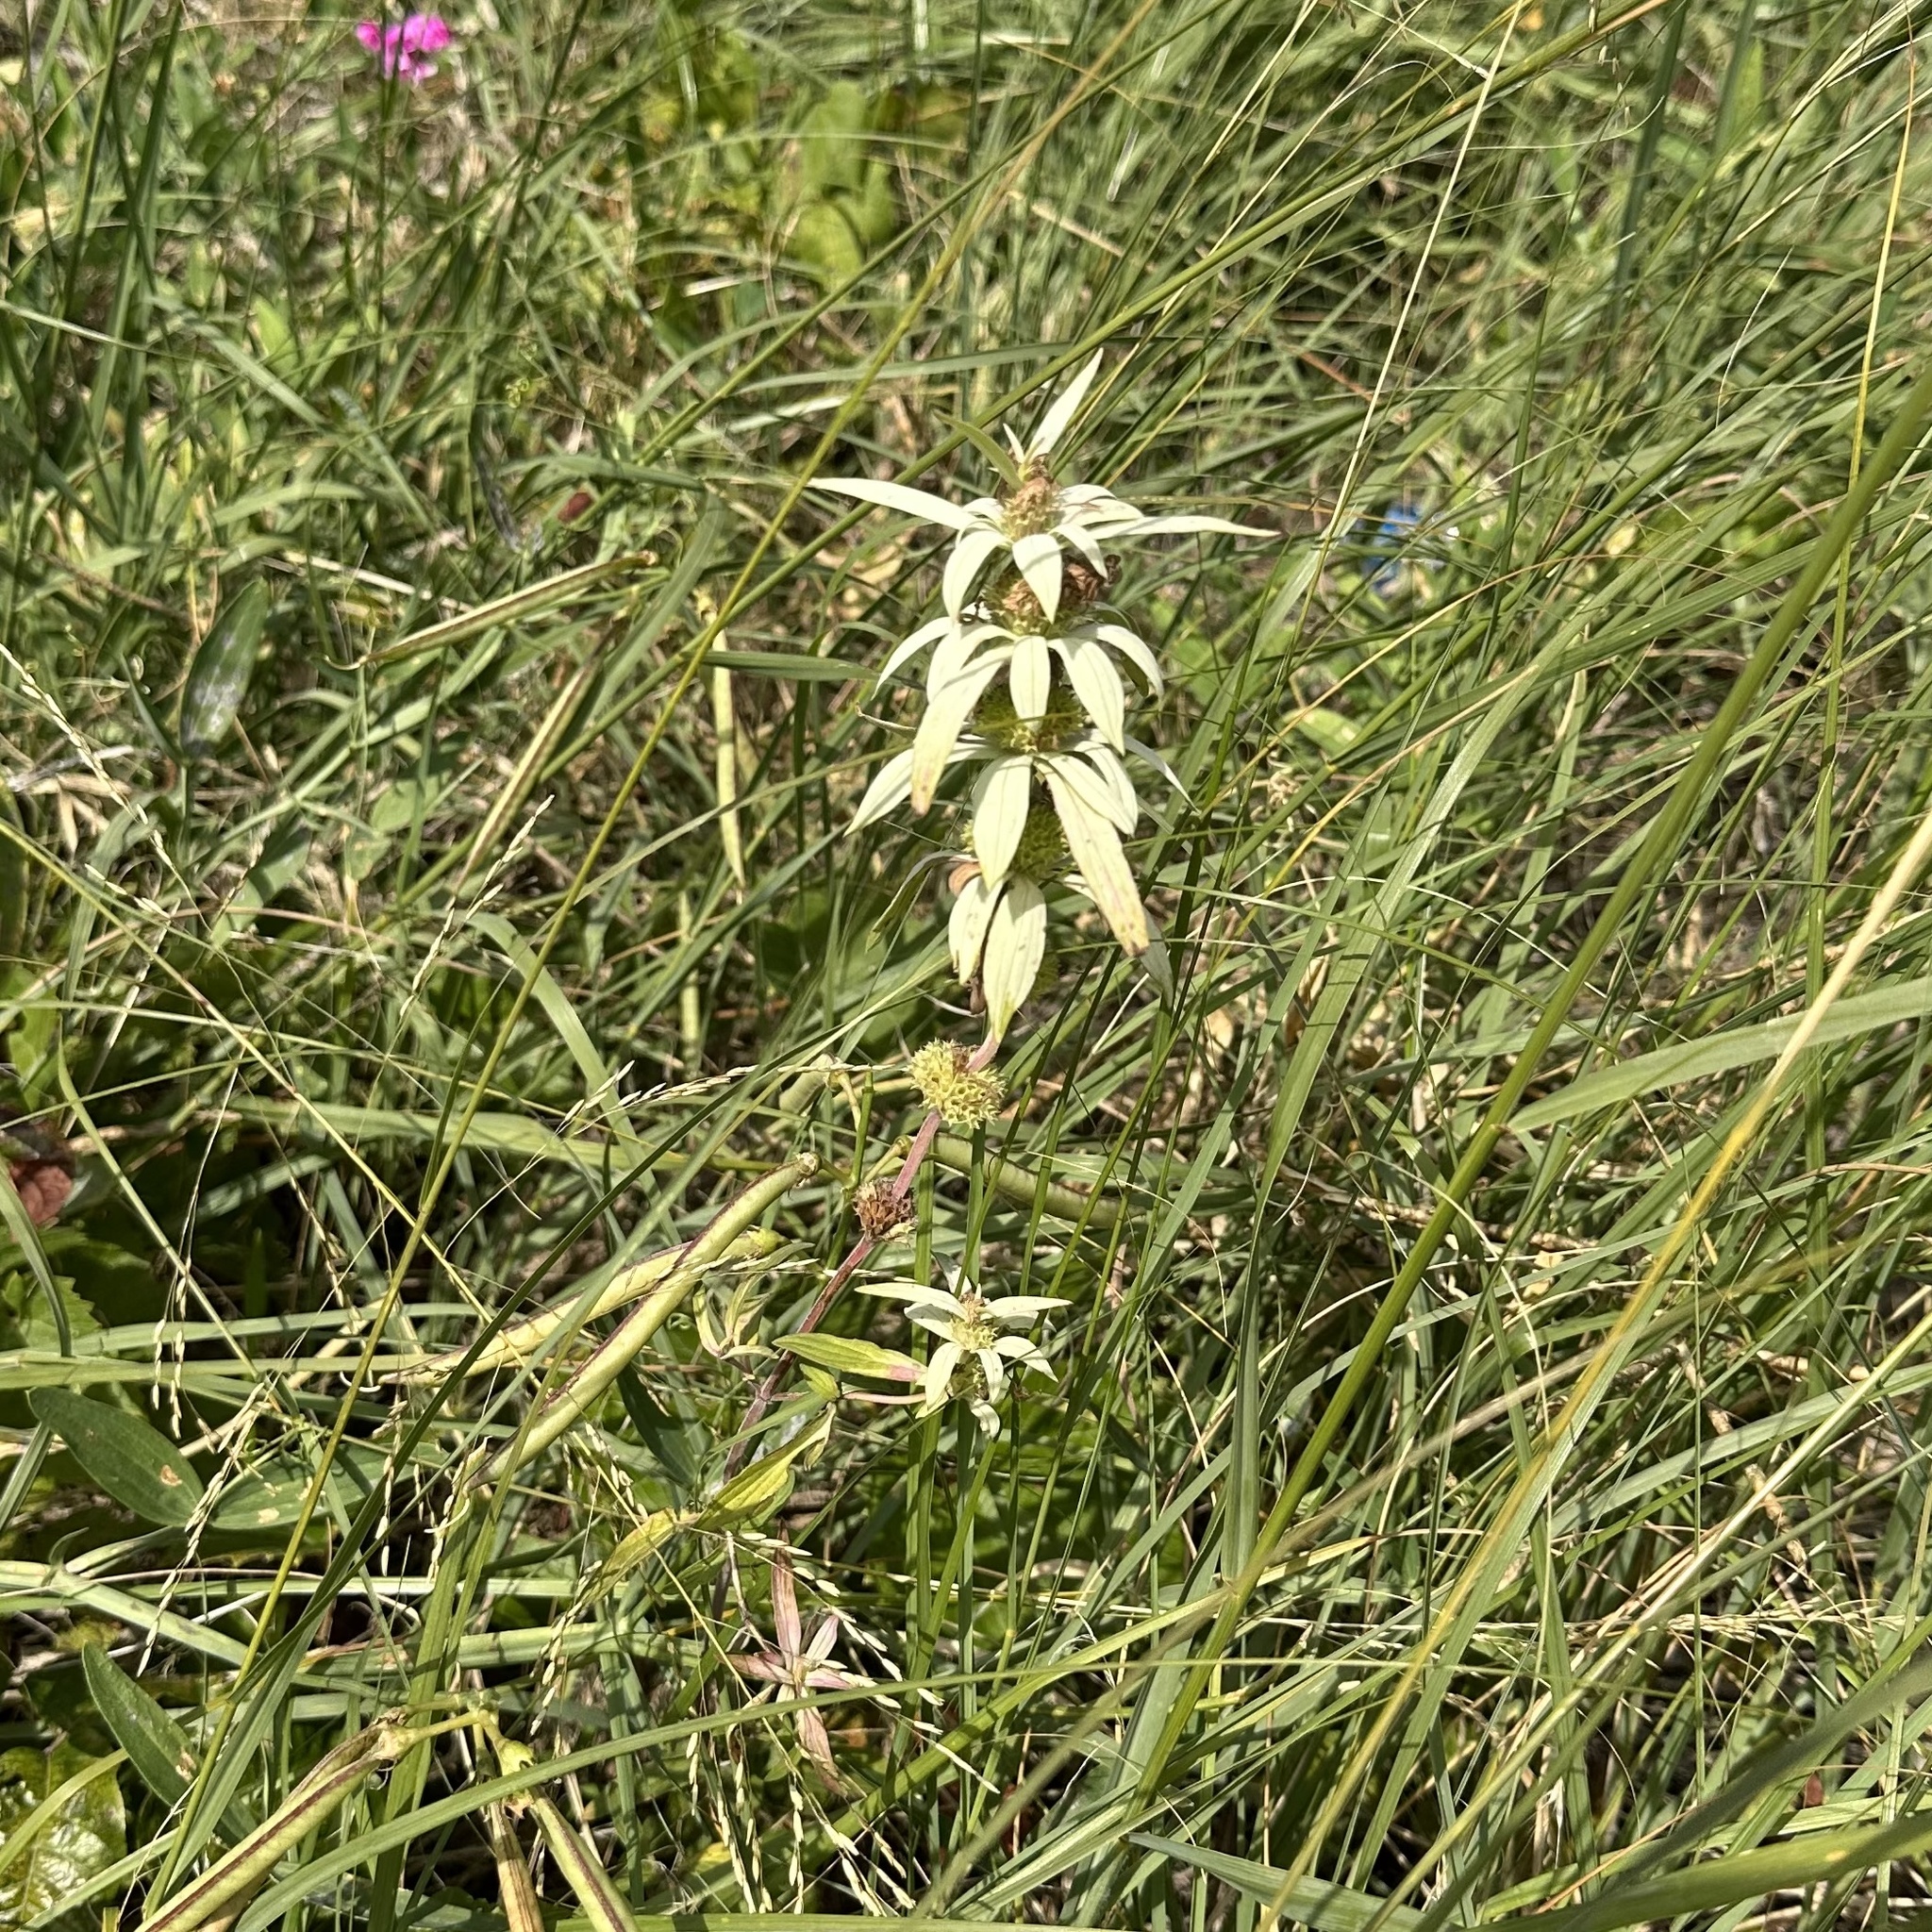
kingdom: Plantae
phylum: Tracheophyta
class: Magnoliopsida
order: Lamiales
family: Lamiaceae
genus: Monarda
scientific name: Monarda punctata
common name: Dotted monarda
